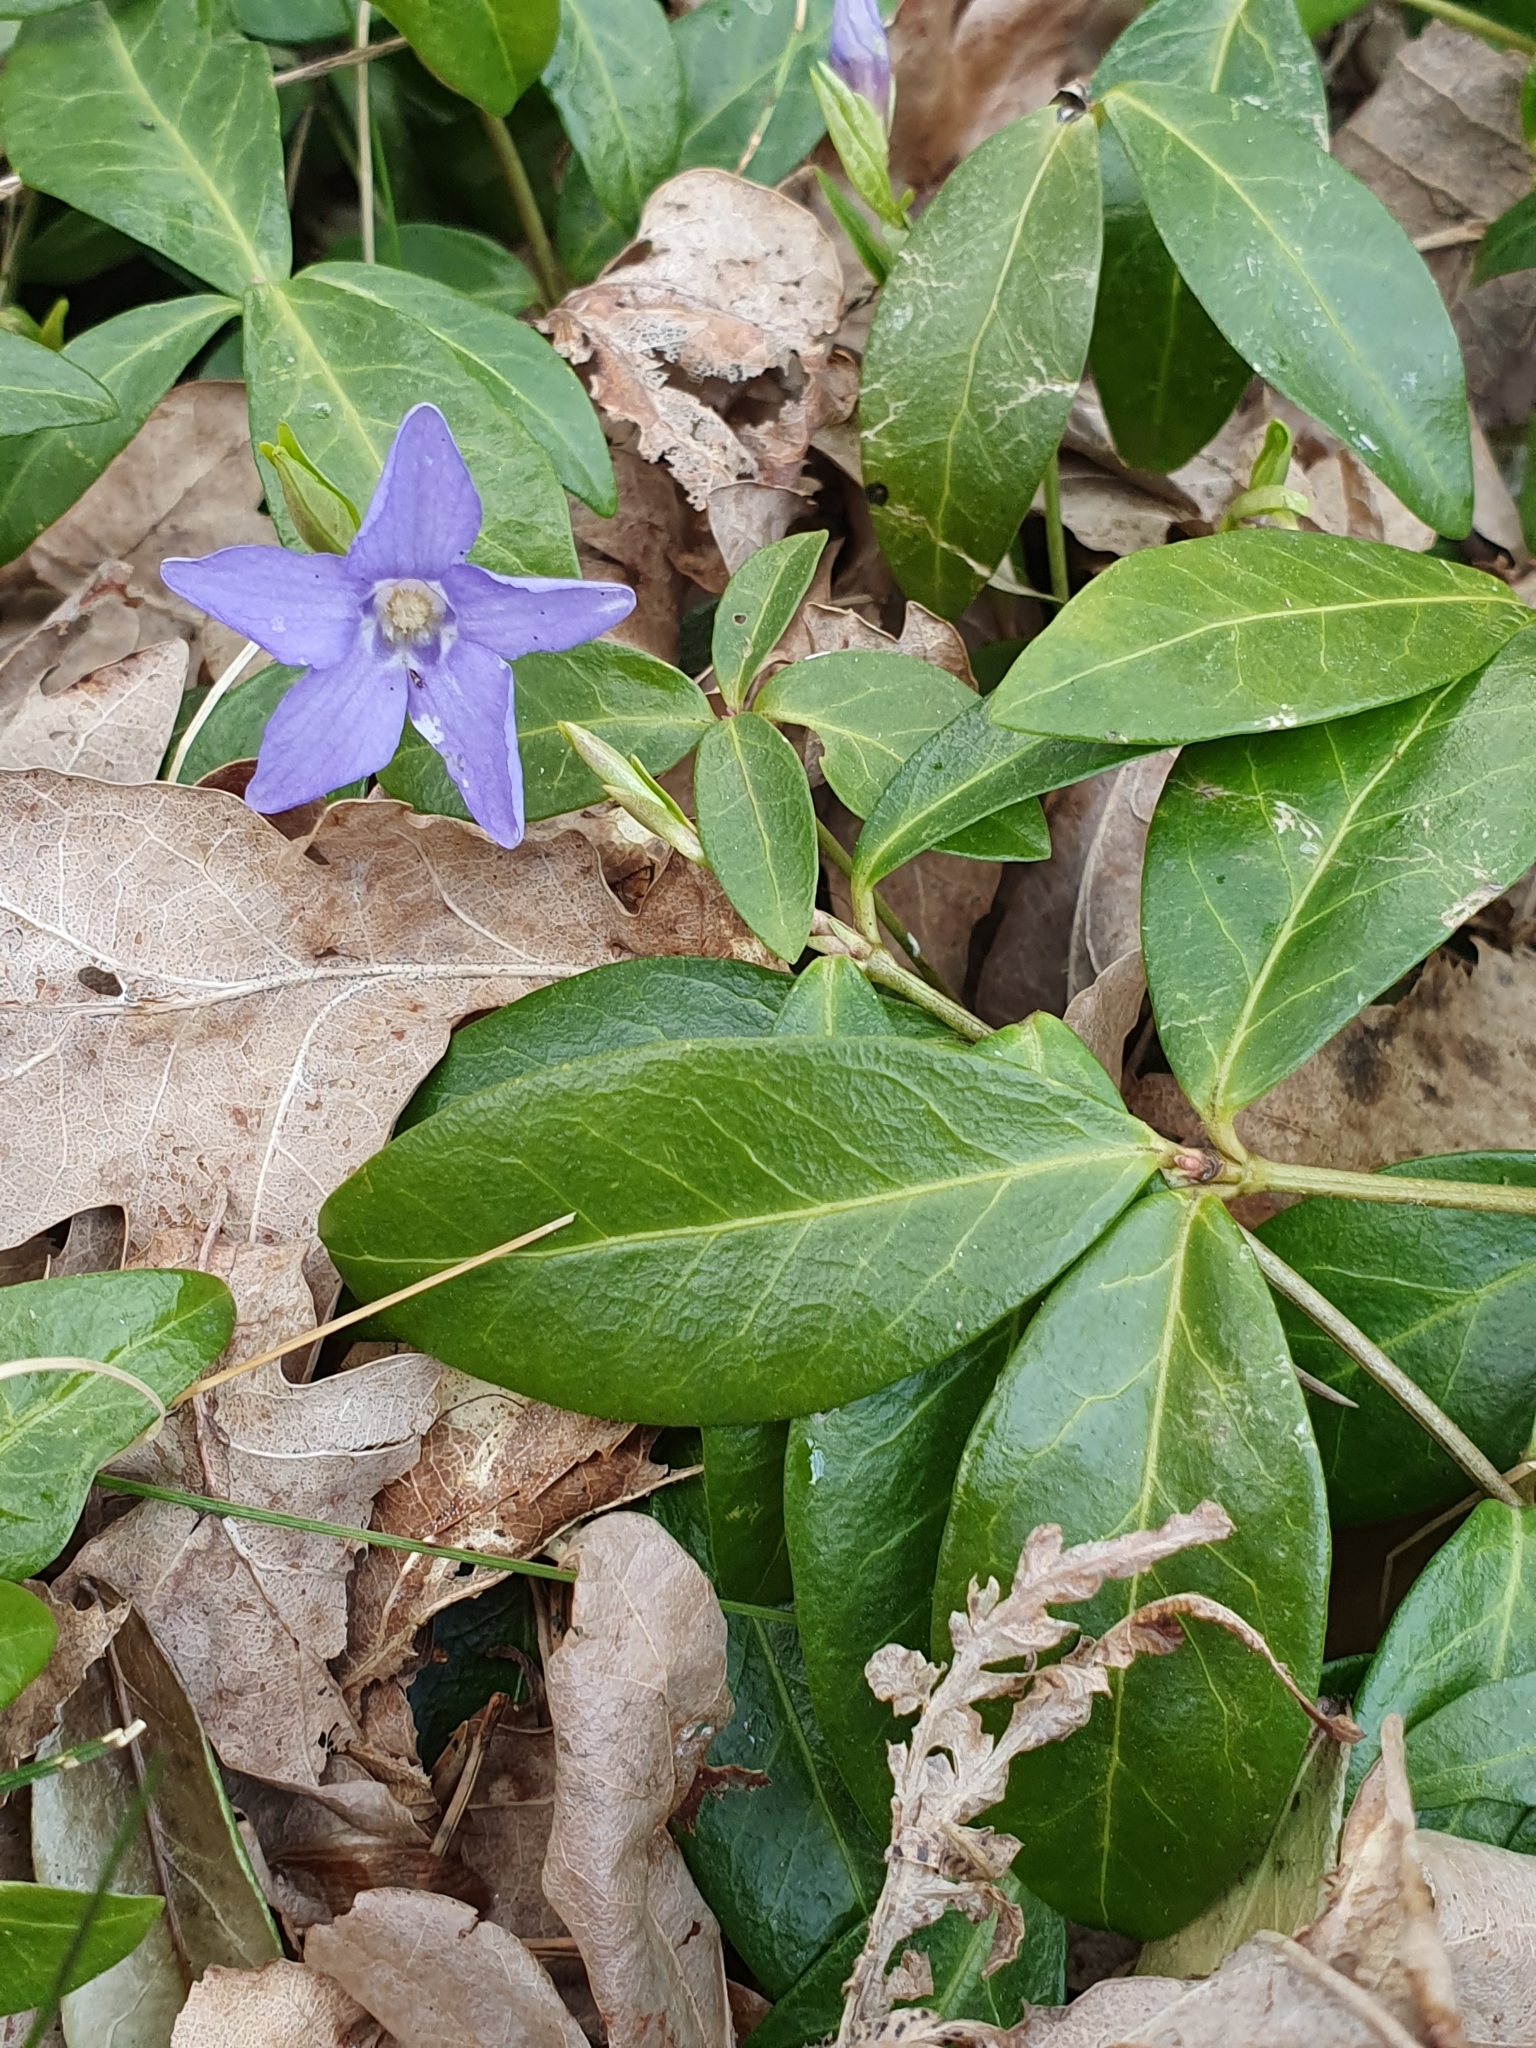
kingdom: Plantae
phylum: Tracheophyta
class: Magnoliopsida
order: Gentianales
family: Apocynaceae
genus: Vinca
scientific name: Vinca minor
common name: Lesser periwinkle
